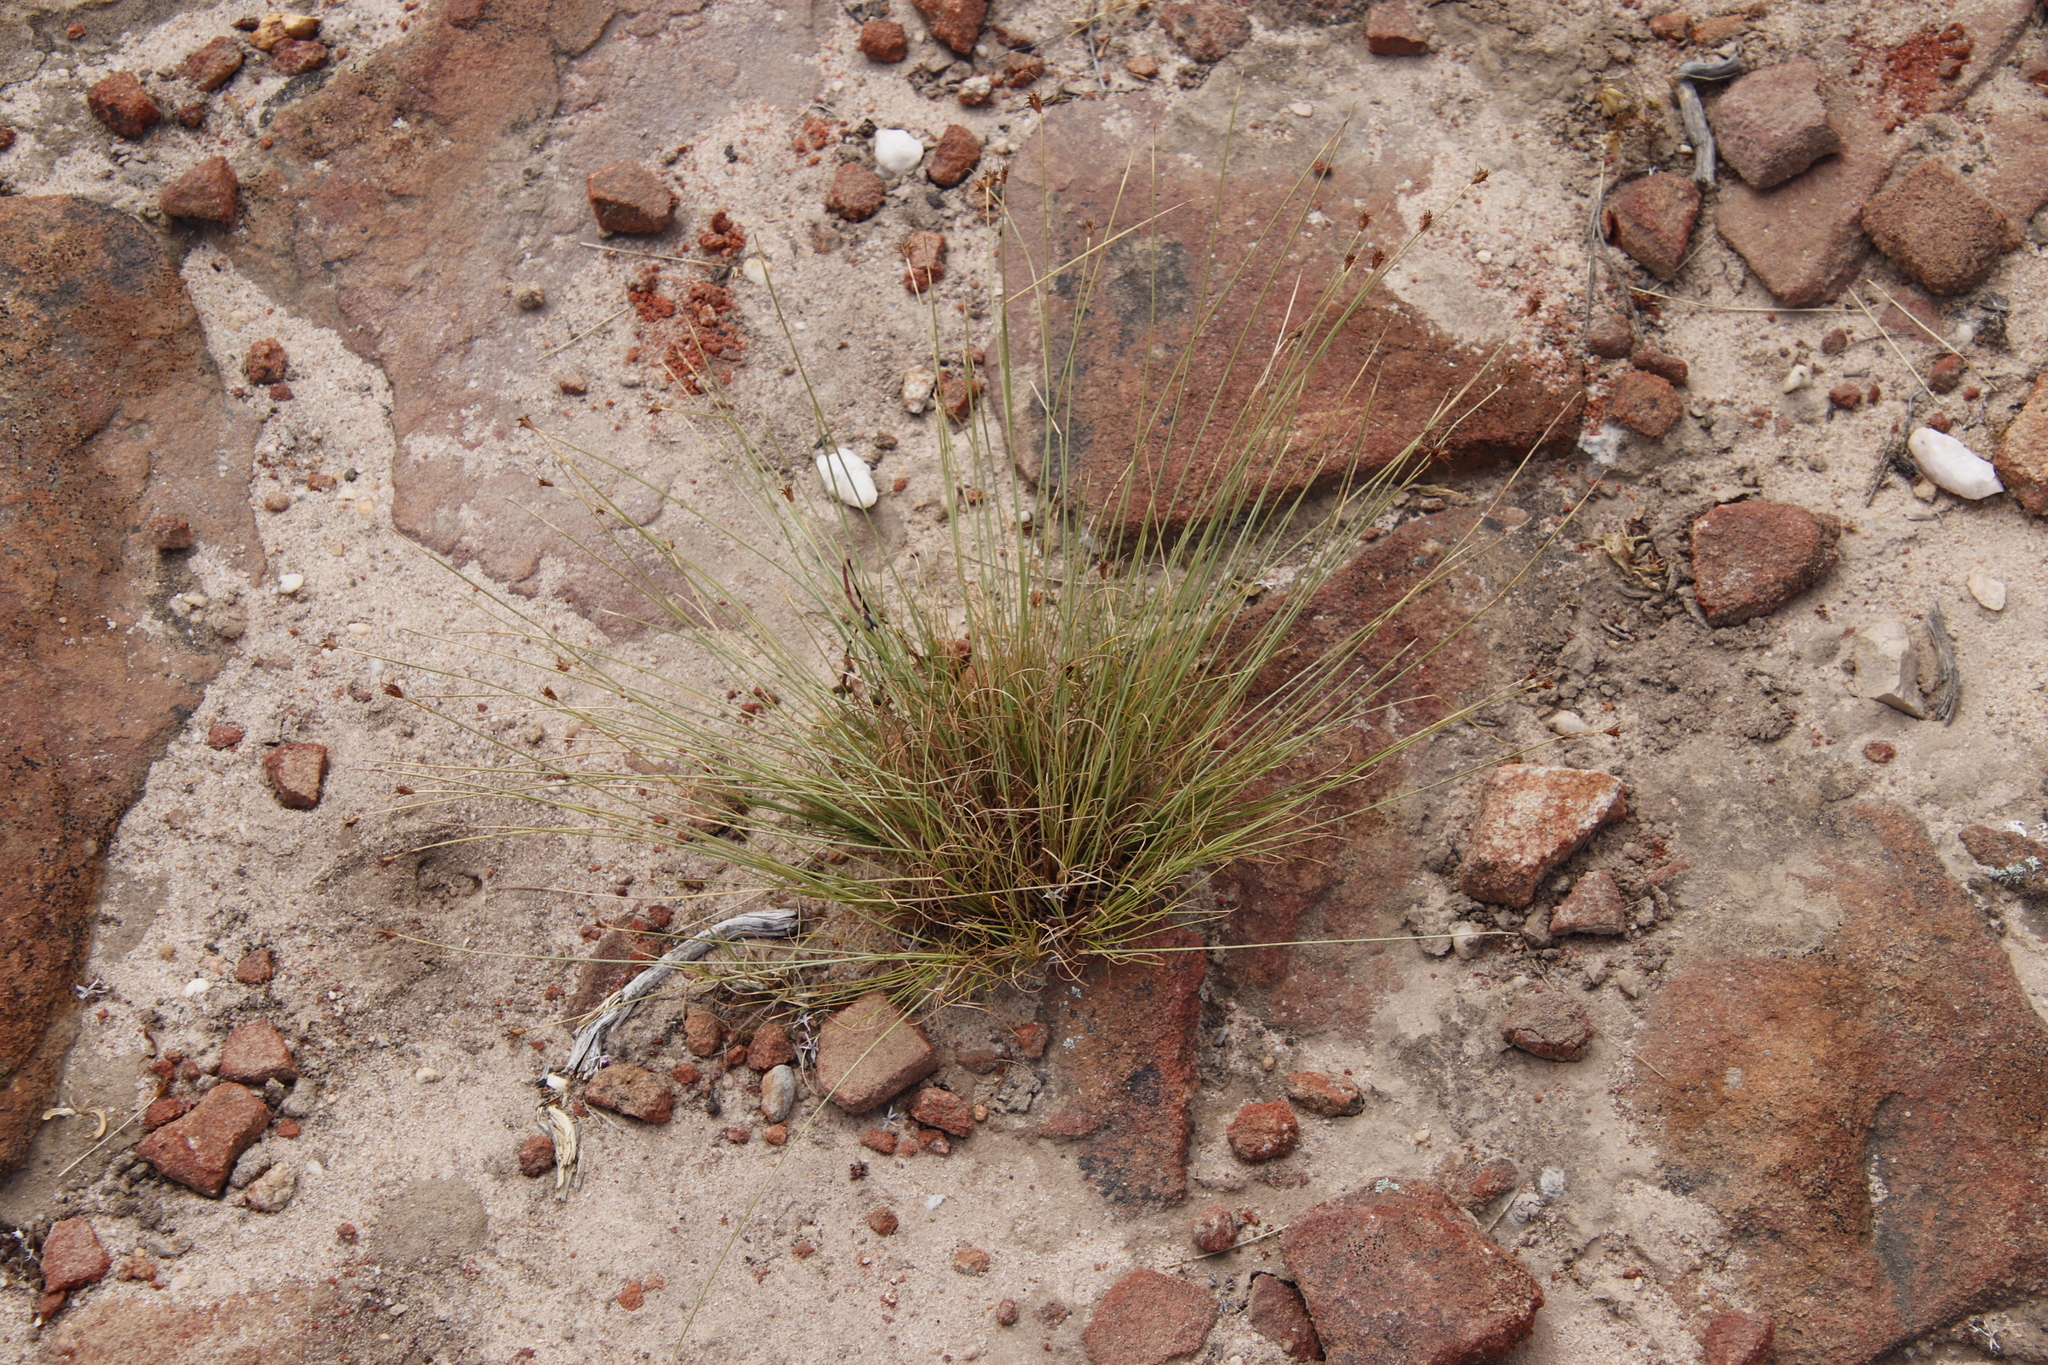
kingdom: Plantae
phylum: Tracheophyta
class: Liliopsida
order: Poales
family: Cyperaceae
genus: Ficinia
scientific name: Ficinia nigrescens
